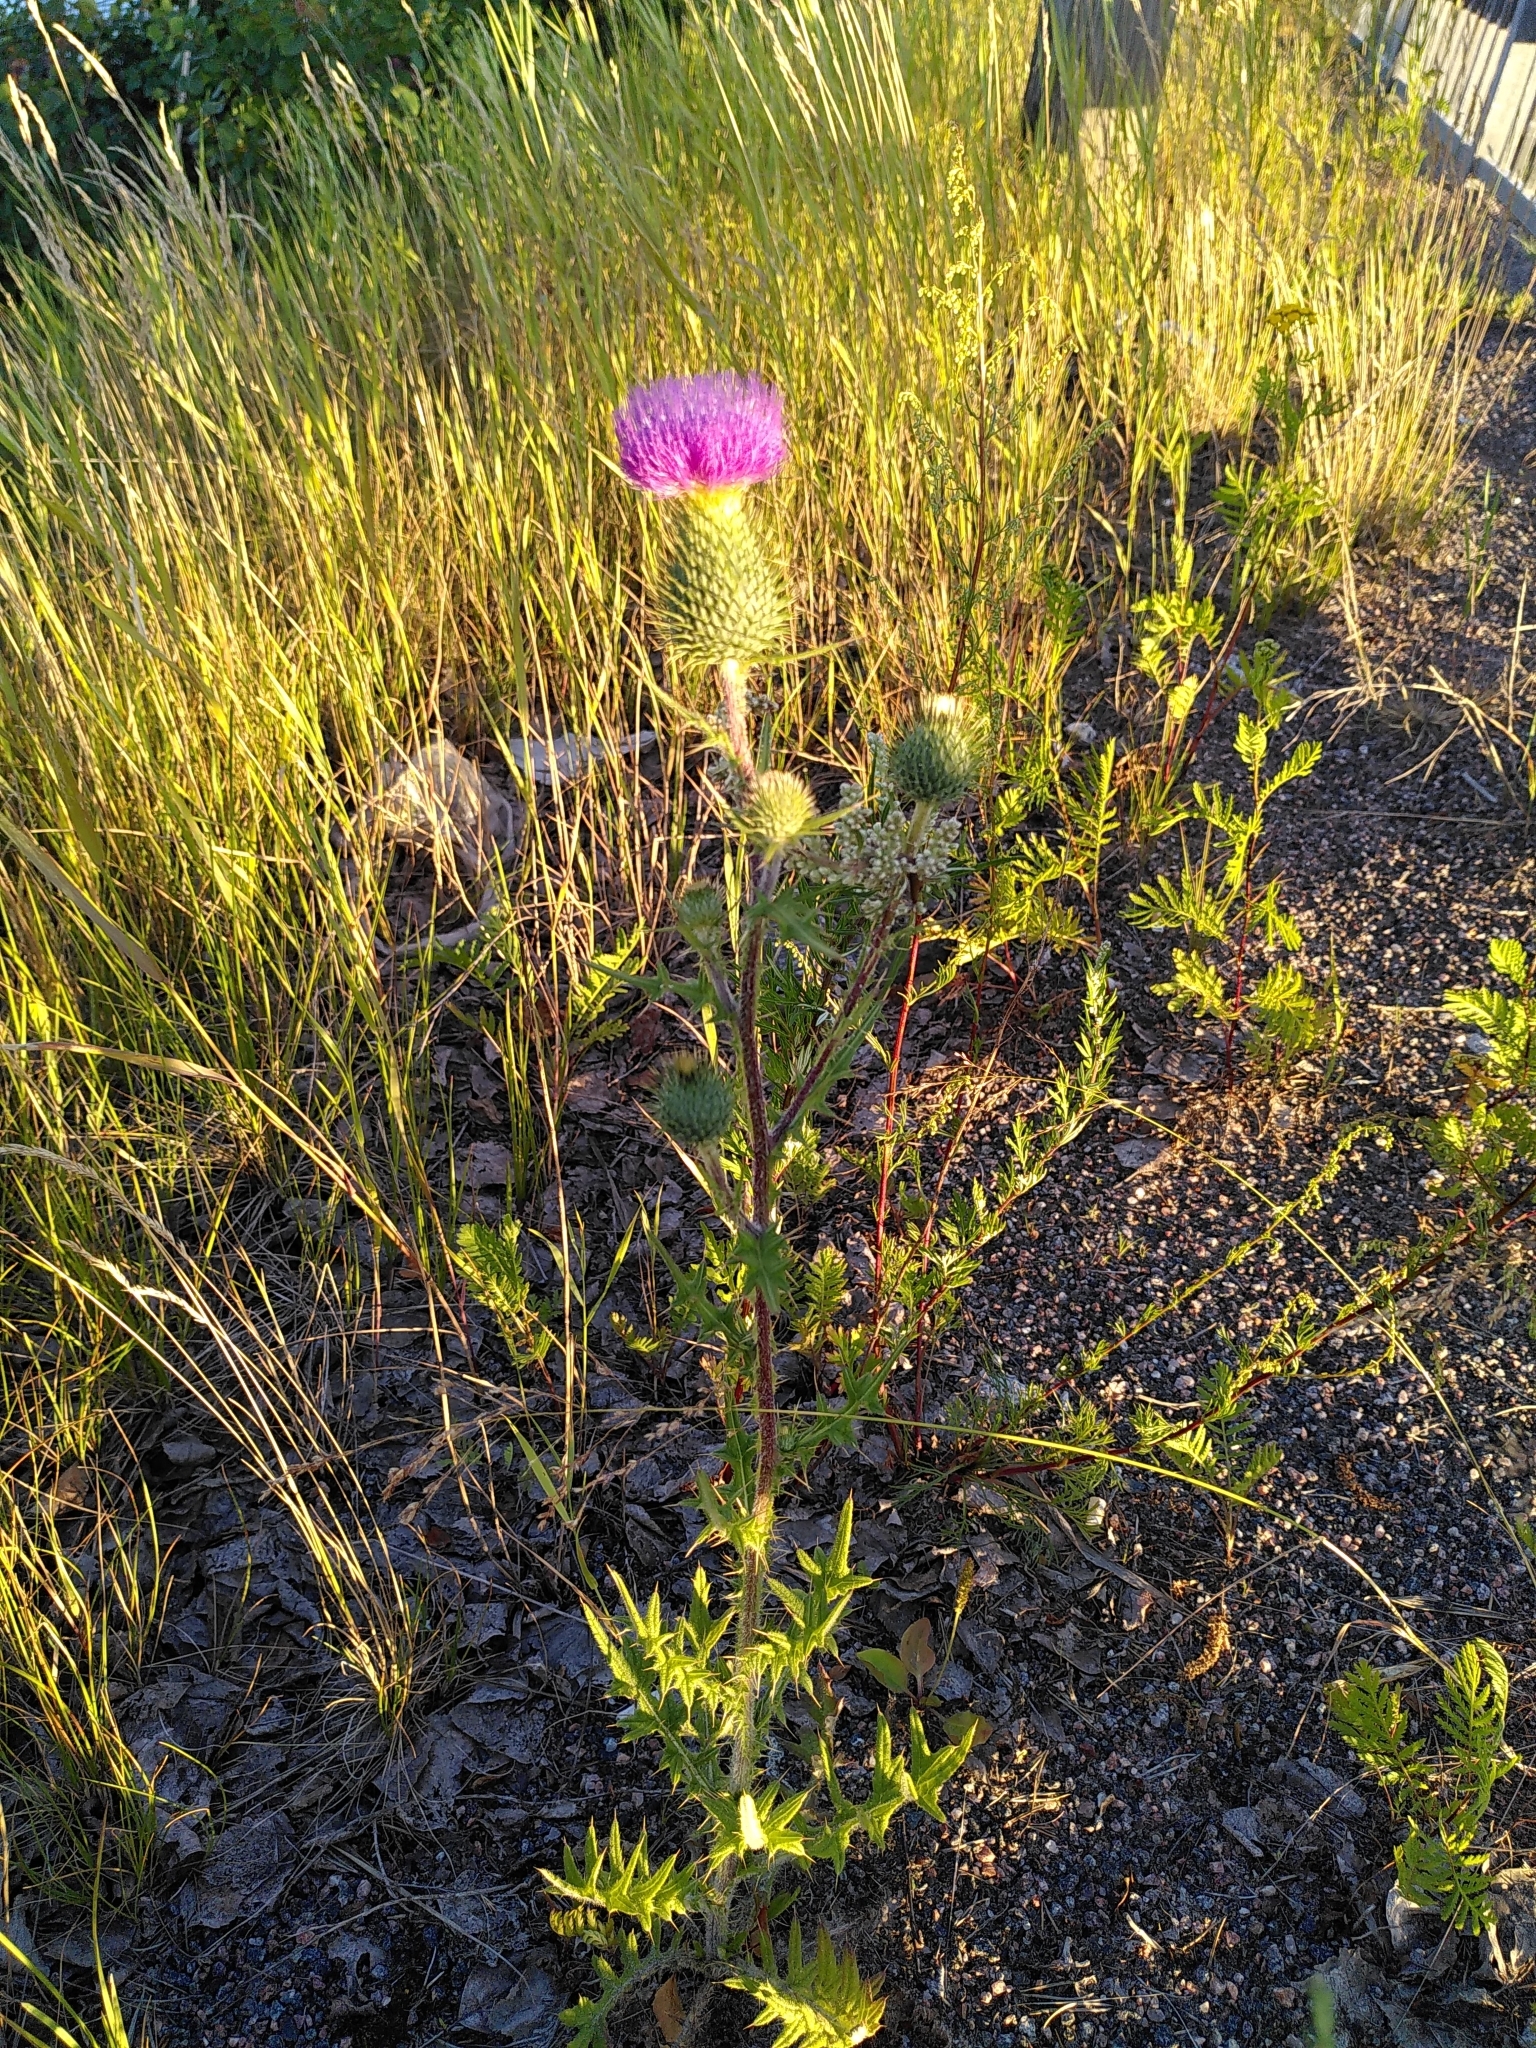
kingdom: Plantae
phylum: Tracheophyta
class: Magnoliopsida
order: Asterales
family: Asteraceae
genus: Cirsium
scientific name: Cirsium vulgare
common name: Bull thistle
